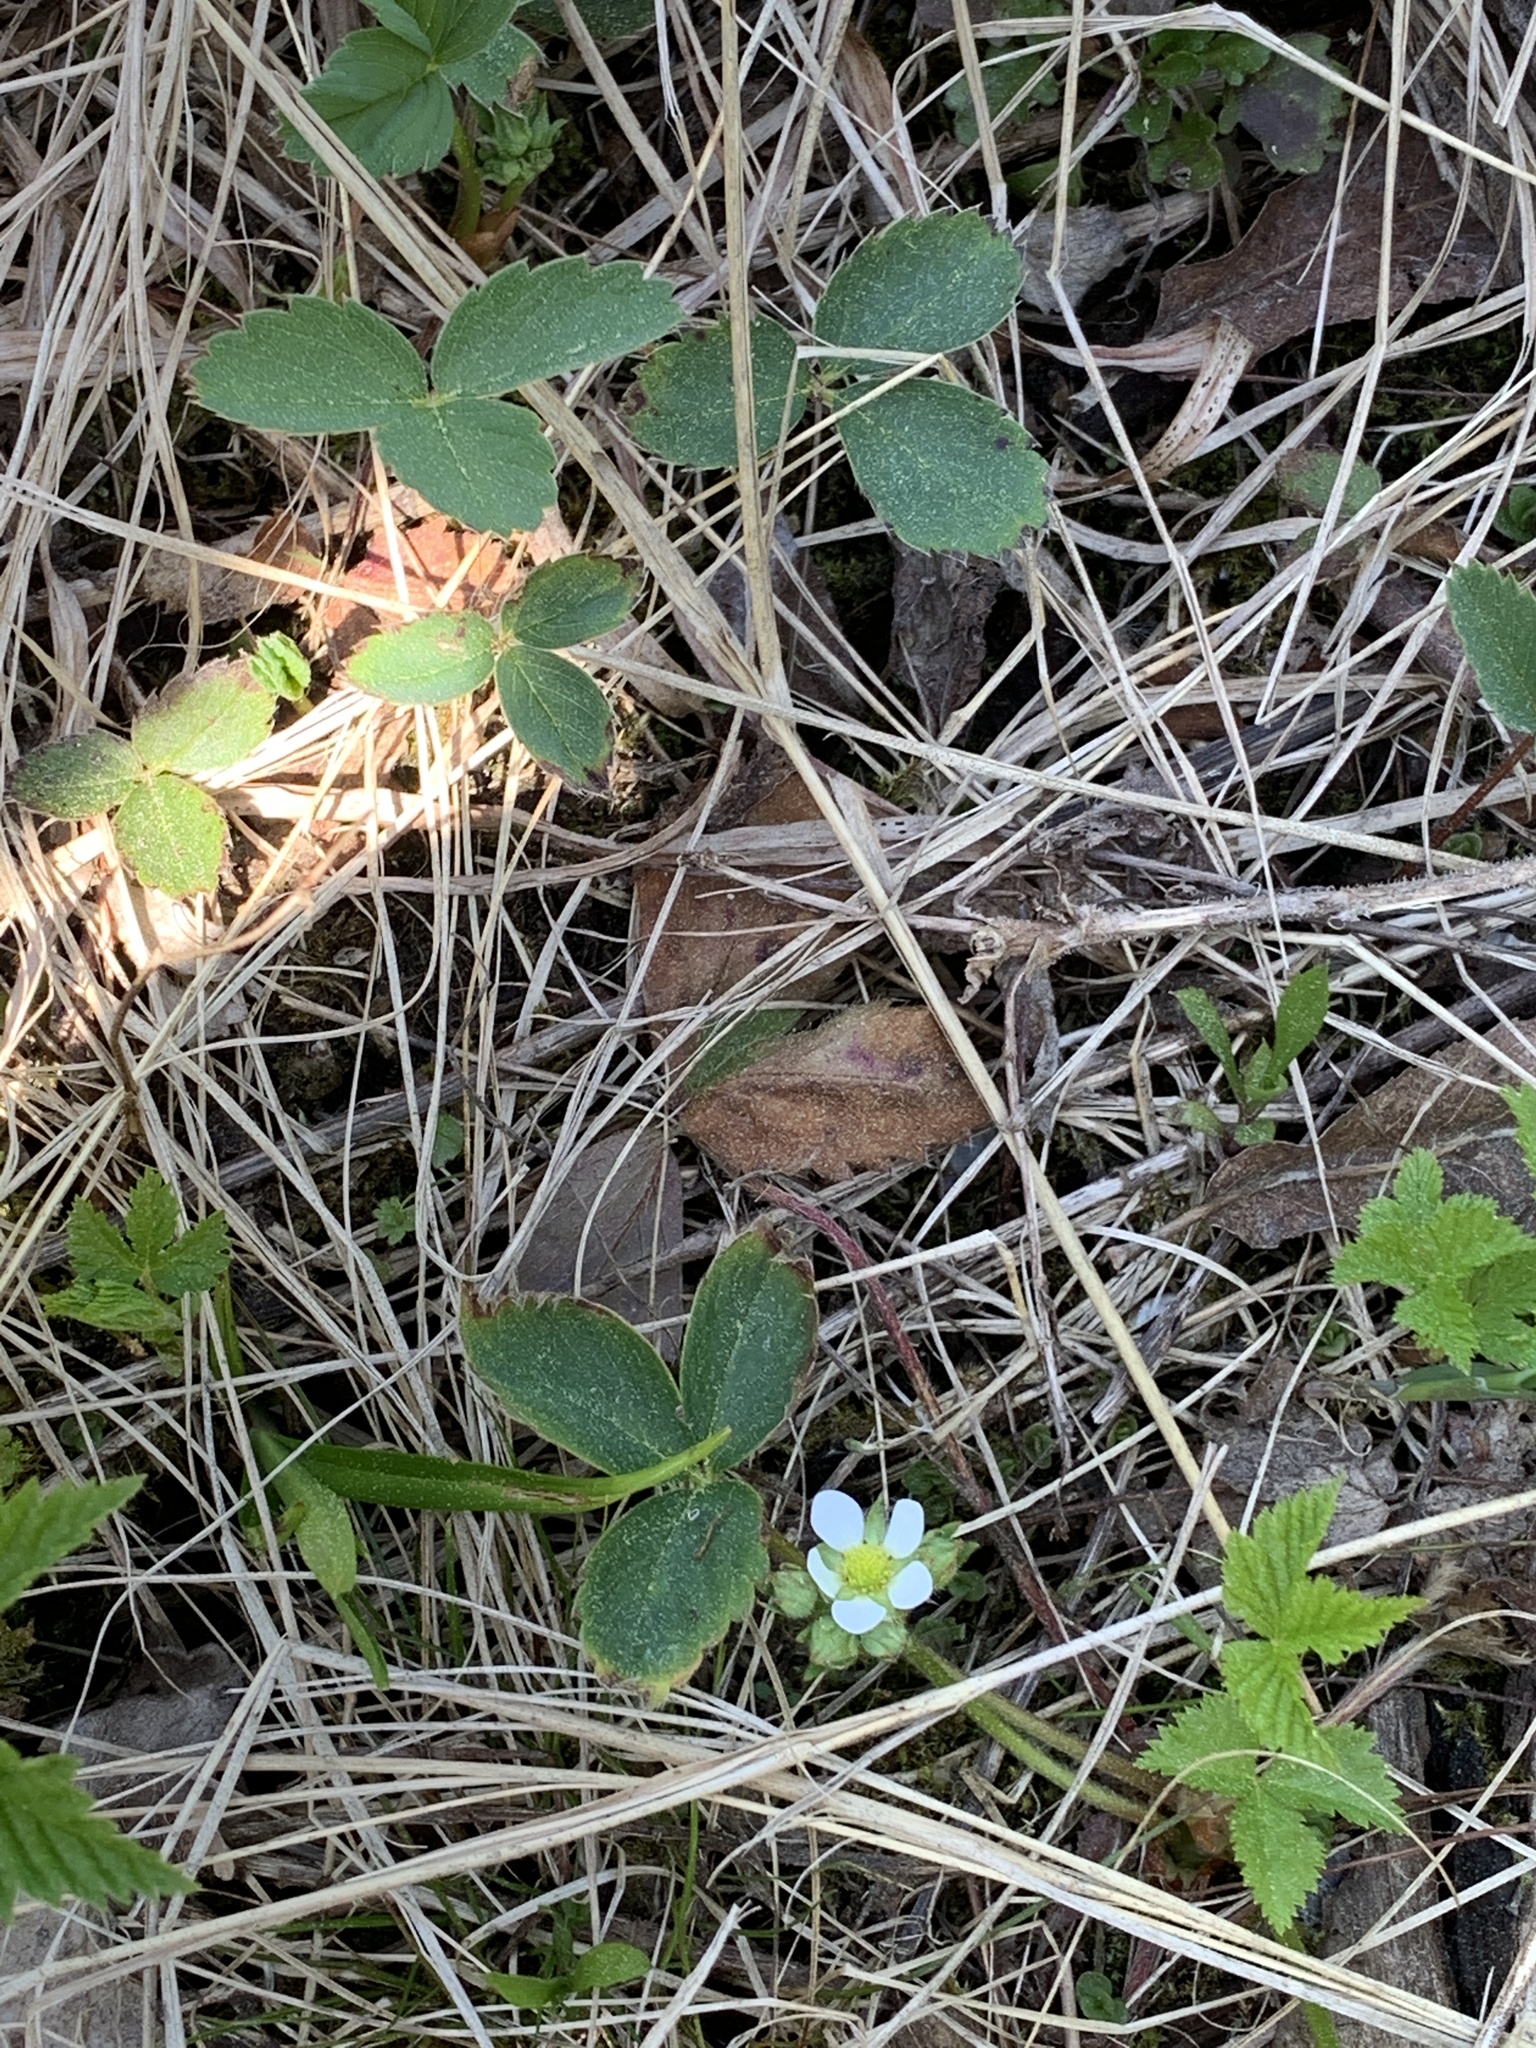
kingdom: Plantae
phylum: Tracheophyta
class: Magnoliopsida
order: Rosales
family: Rosaceae
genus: Fragaria
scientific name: Fragaria virginiana
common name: Thickleaved wild strawberry
